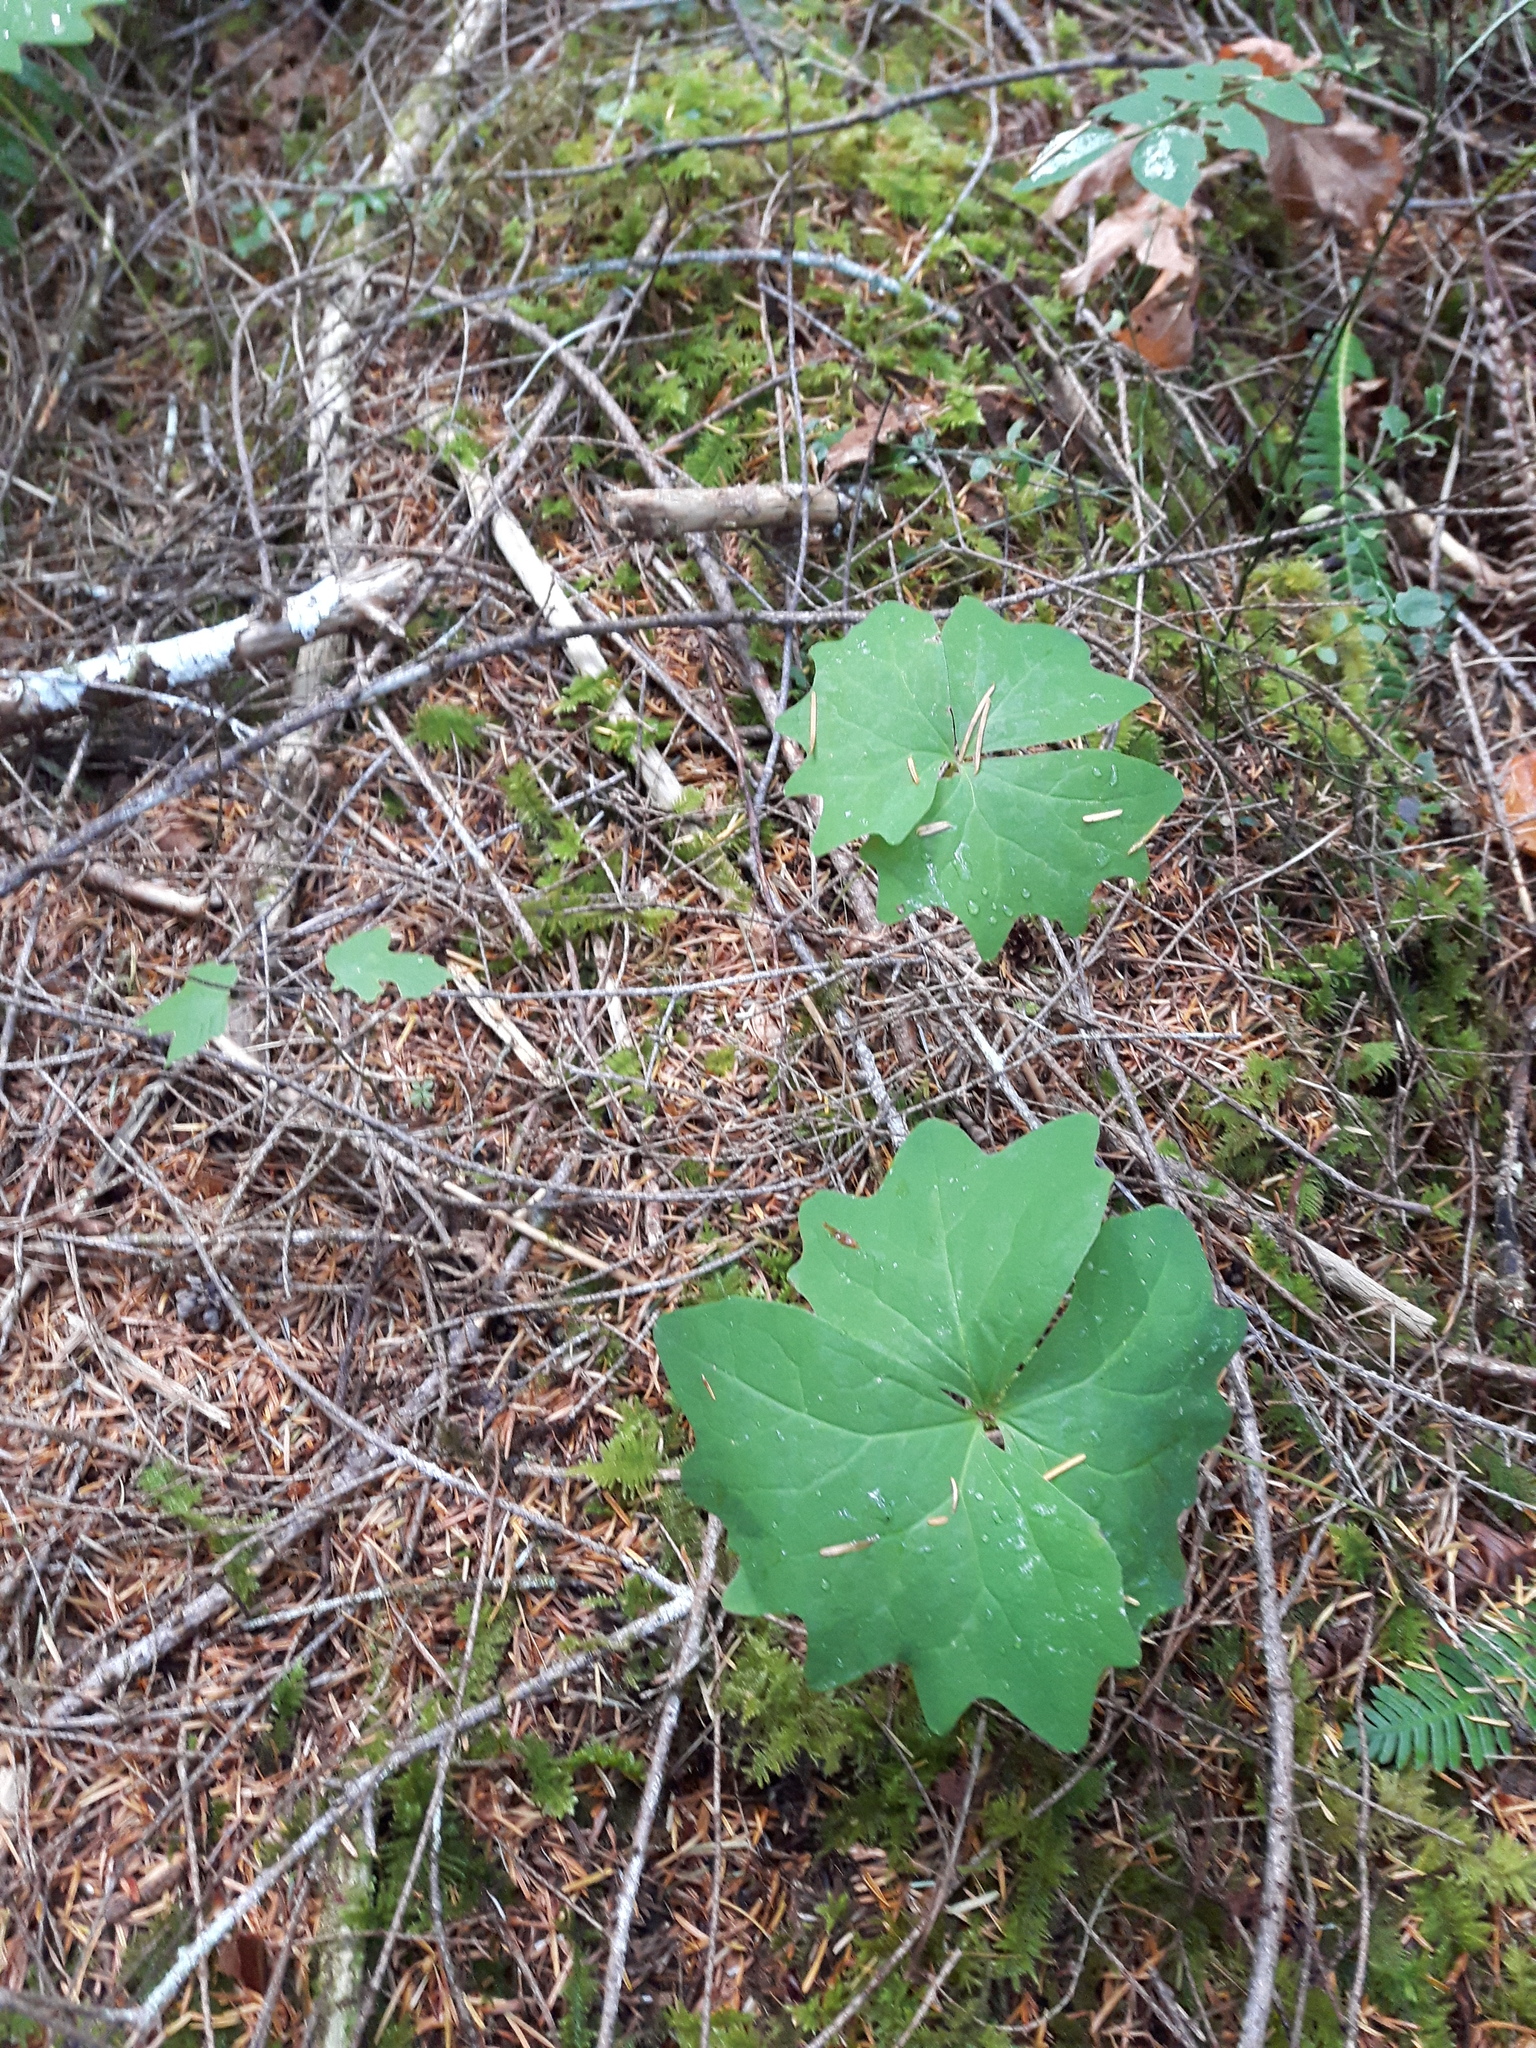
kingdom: Plantae
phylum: Tracheophyta
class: Magnoliopsida
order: Ranunculales
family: Berberidaceae
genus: Achlys
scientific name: Achlys triphylla
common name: Vanilla-leaf
